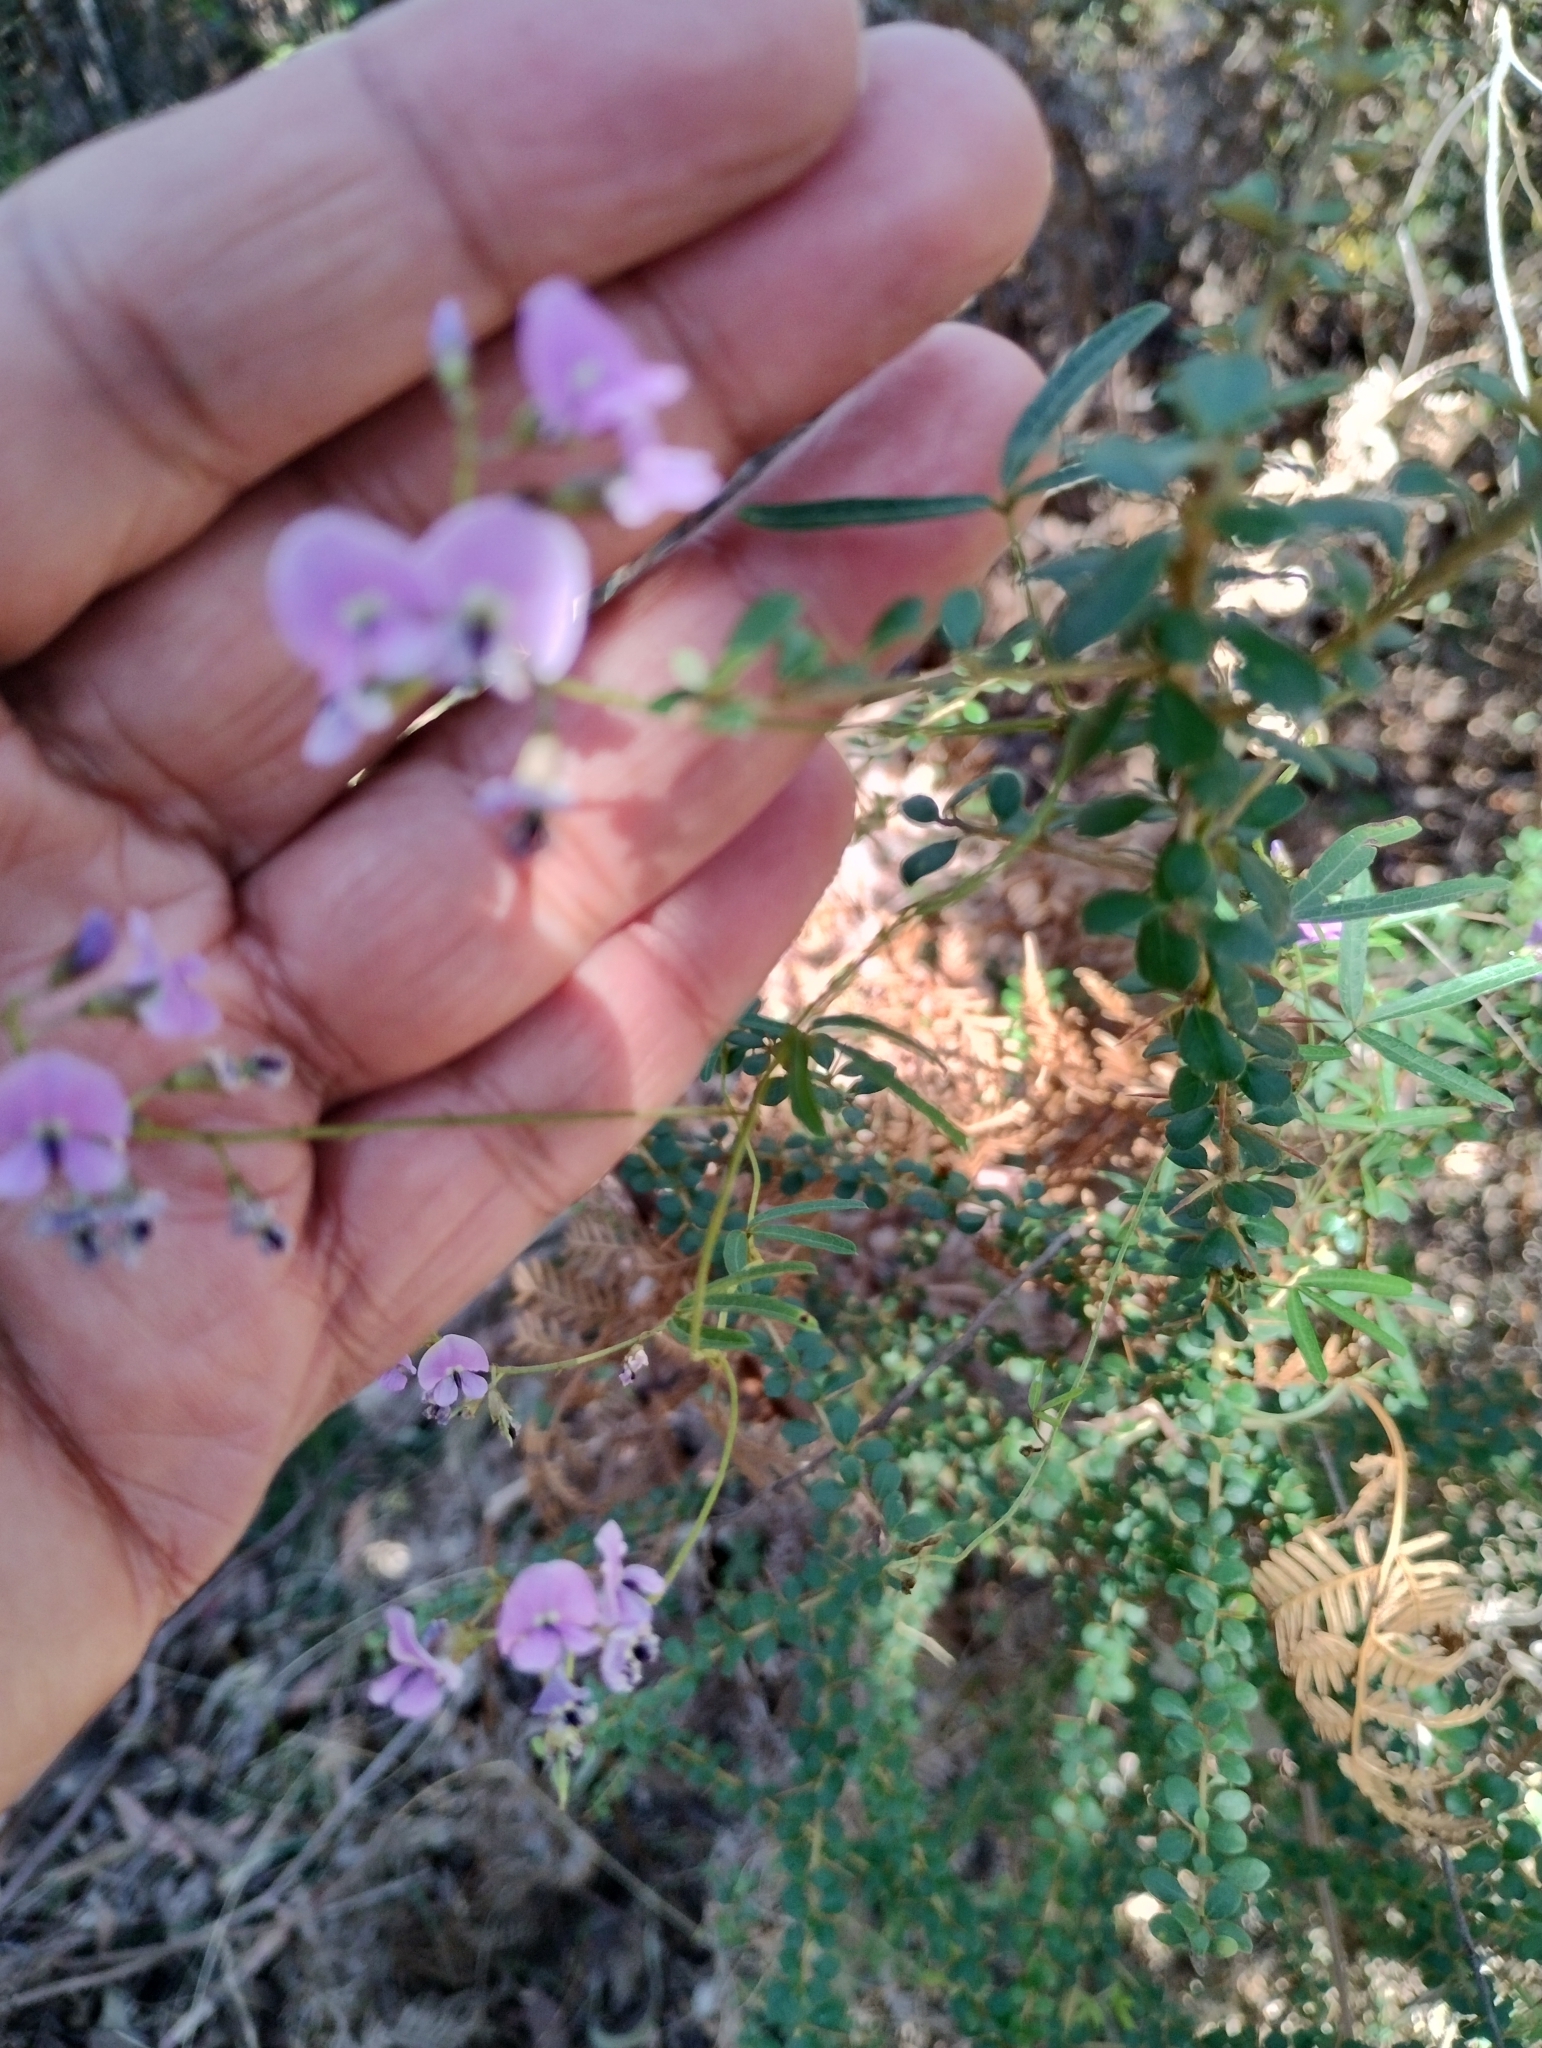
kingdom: Plantae
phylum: Tracheophyta
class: Magnoliopsida
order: Fabales
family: Fabaceae
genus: Glycine
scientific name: Glycine clandestina
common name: Twining glycine
